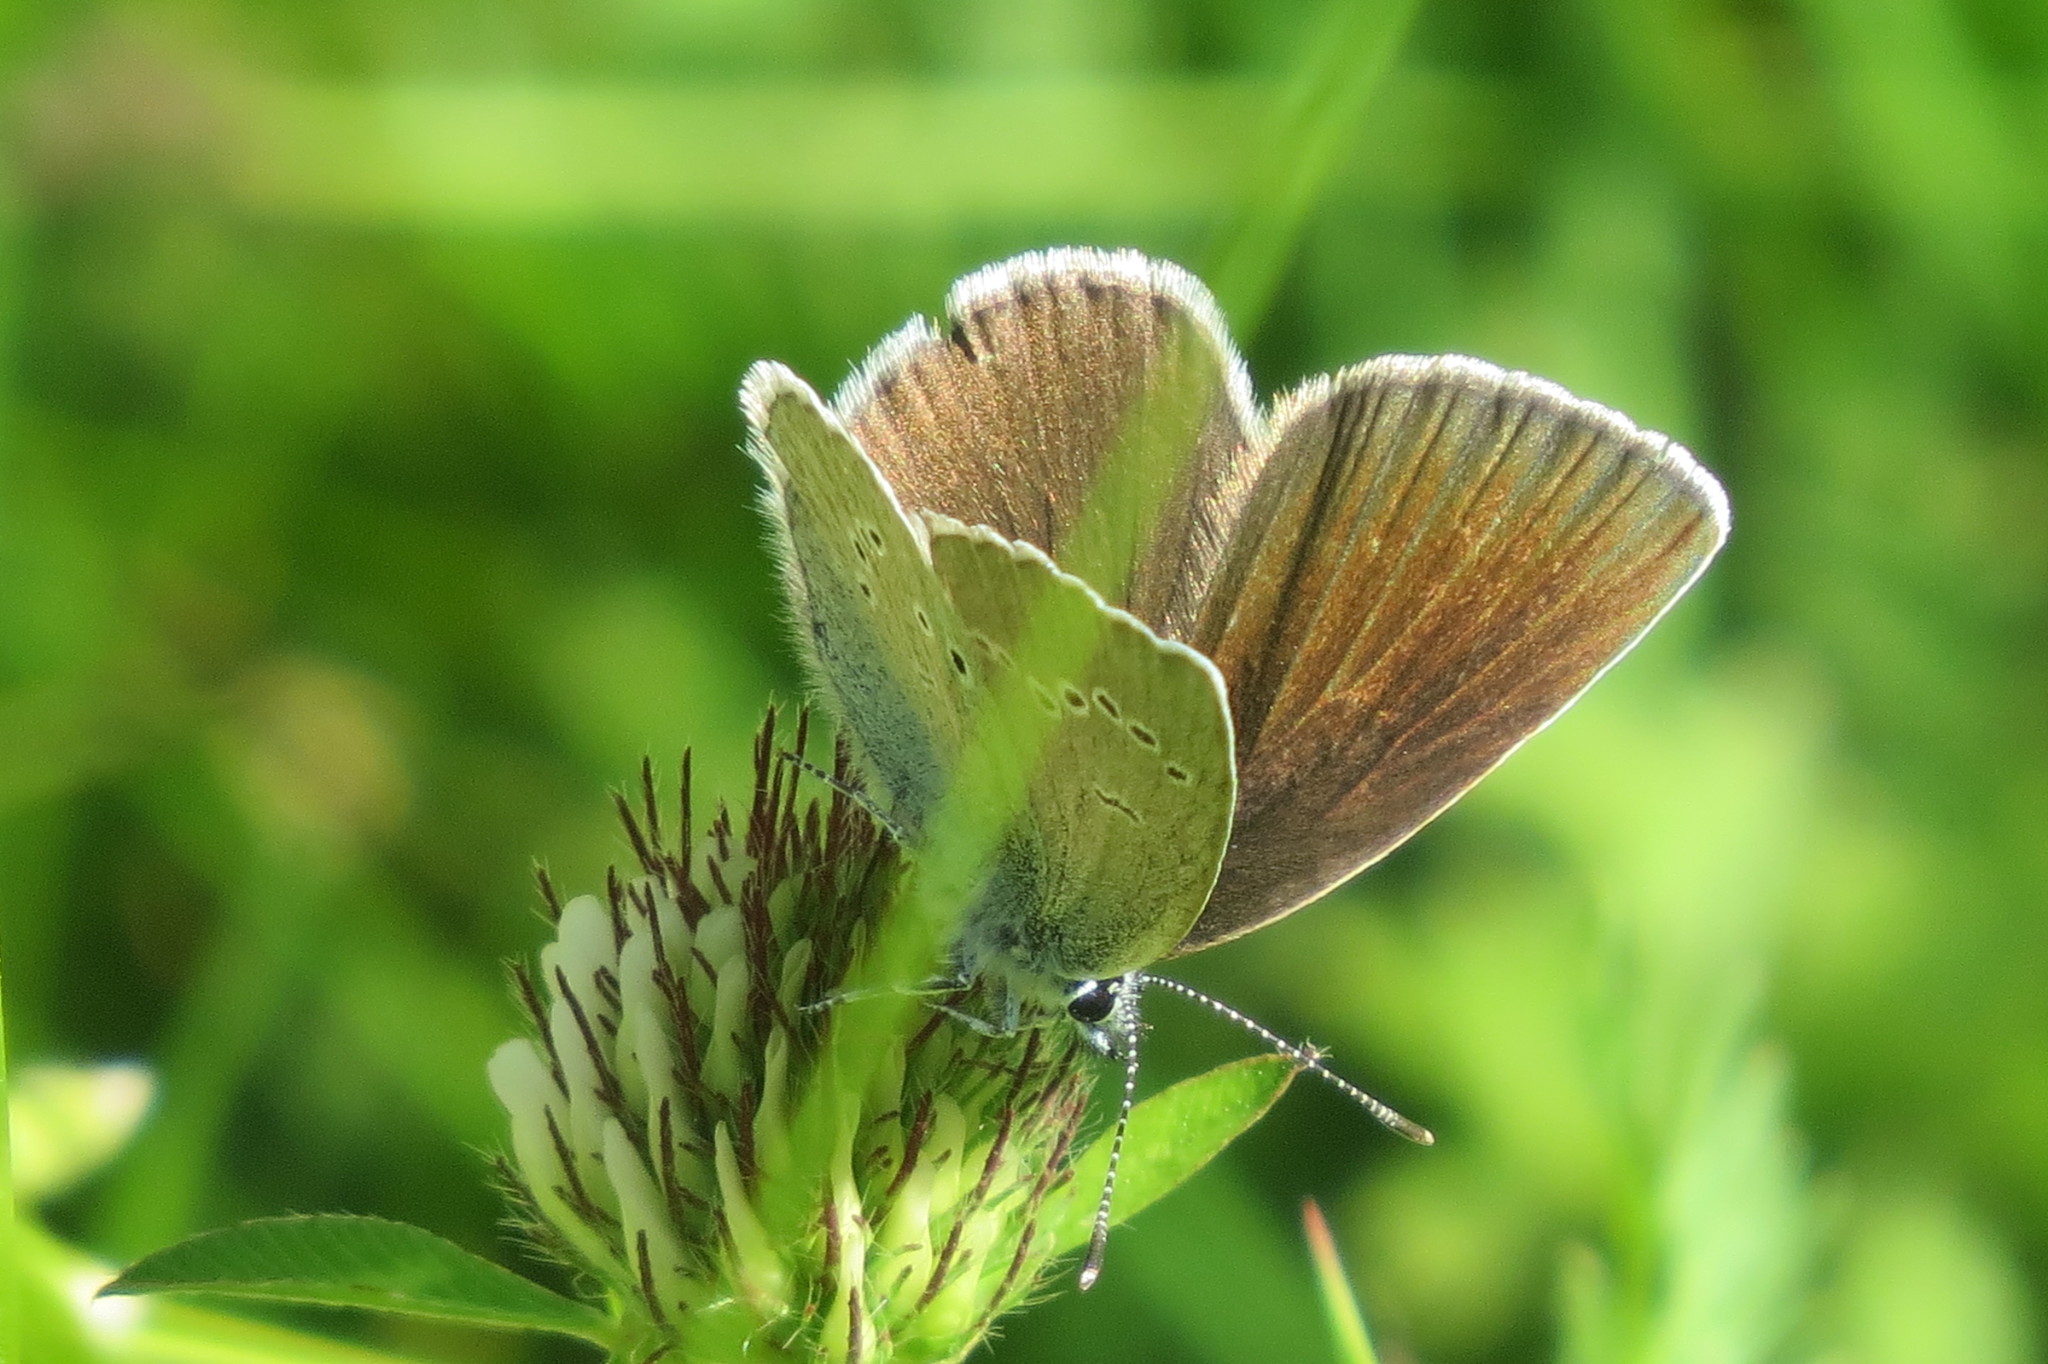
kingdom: Animalia
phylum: Arthropoda
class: Insecta
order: Lepidoptera
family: Lycaenidae
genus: Cyaniris
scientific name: Cyaniris semiargus
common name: Mazarine blue
